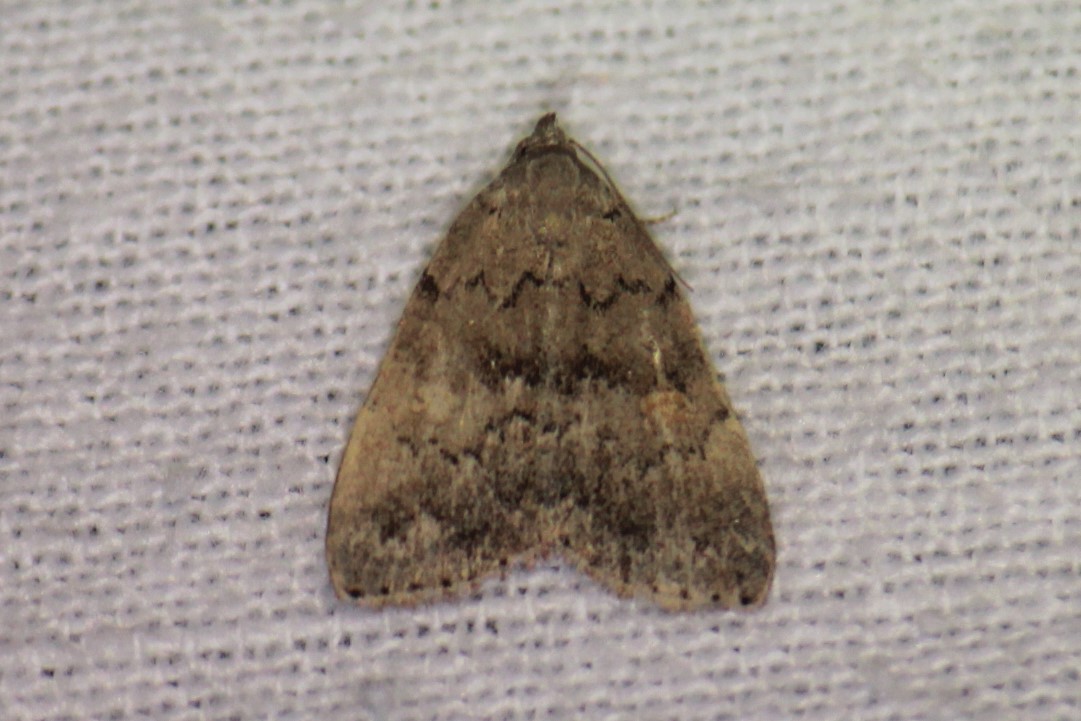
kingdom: Animalia
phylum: Arthropoda
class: Insecta
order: Lepidoptera
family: Erebidae
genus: Idia
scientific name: Idia aemula
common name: Common idia moth
